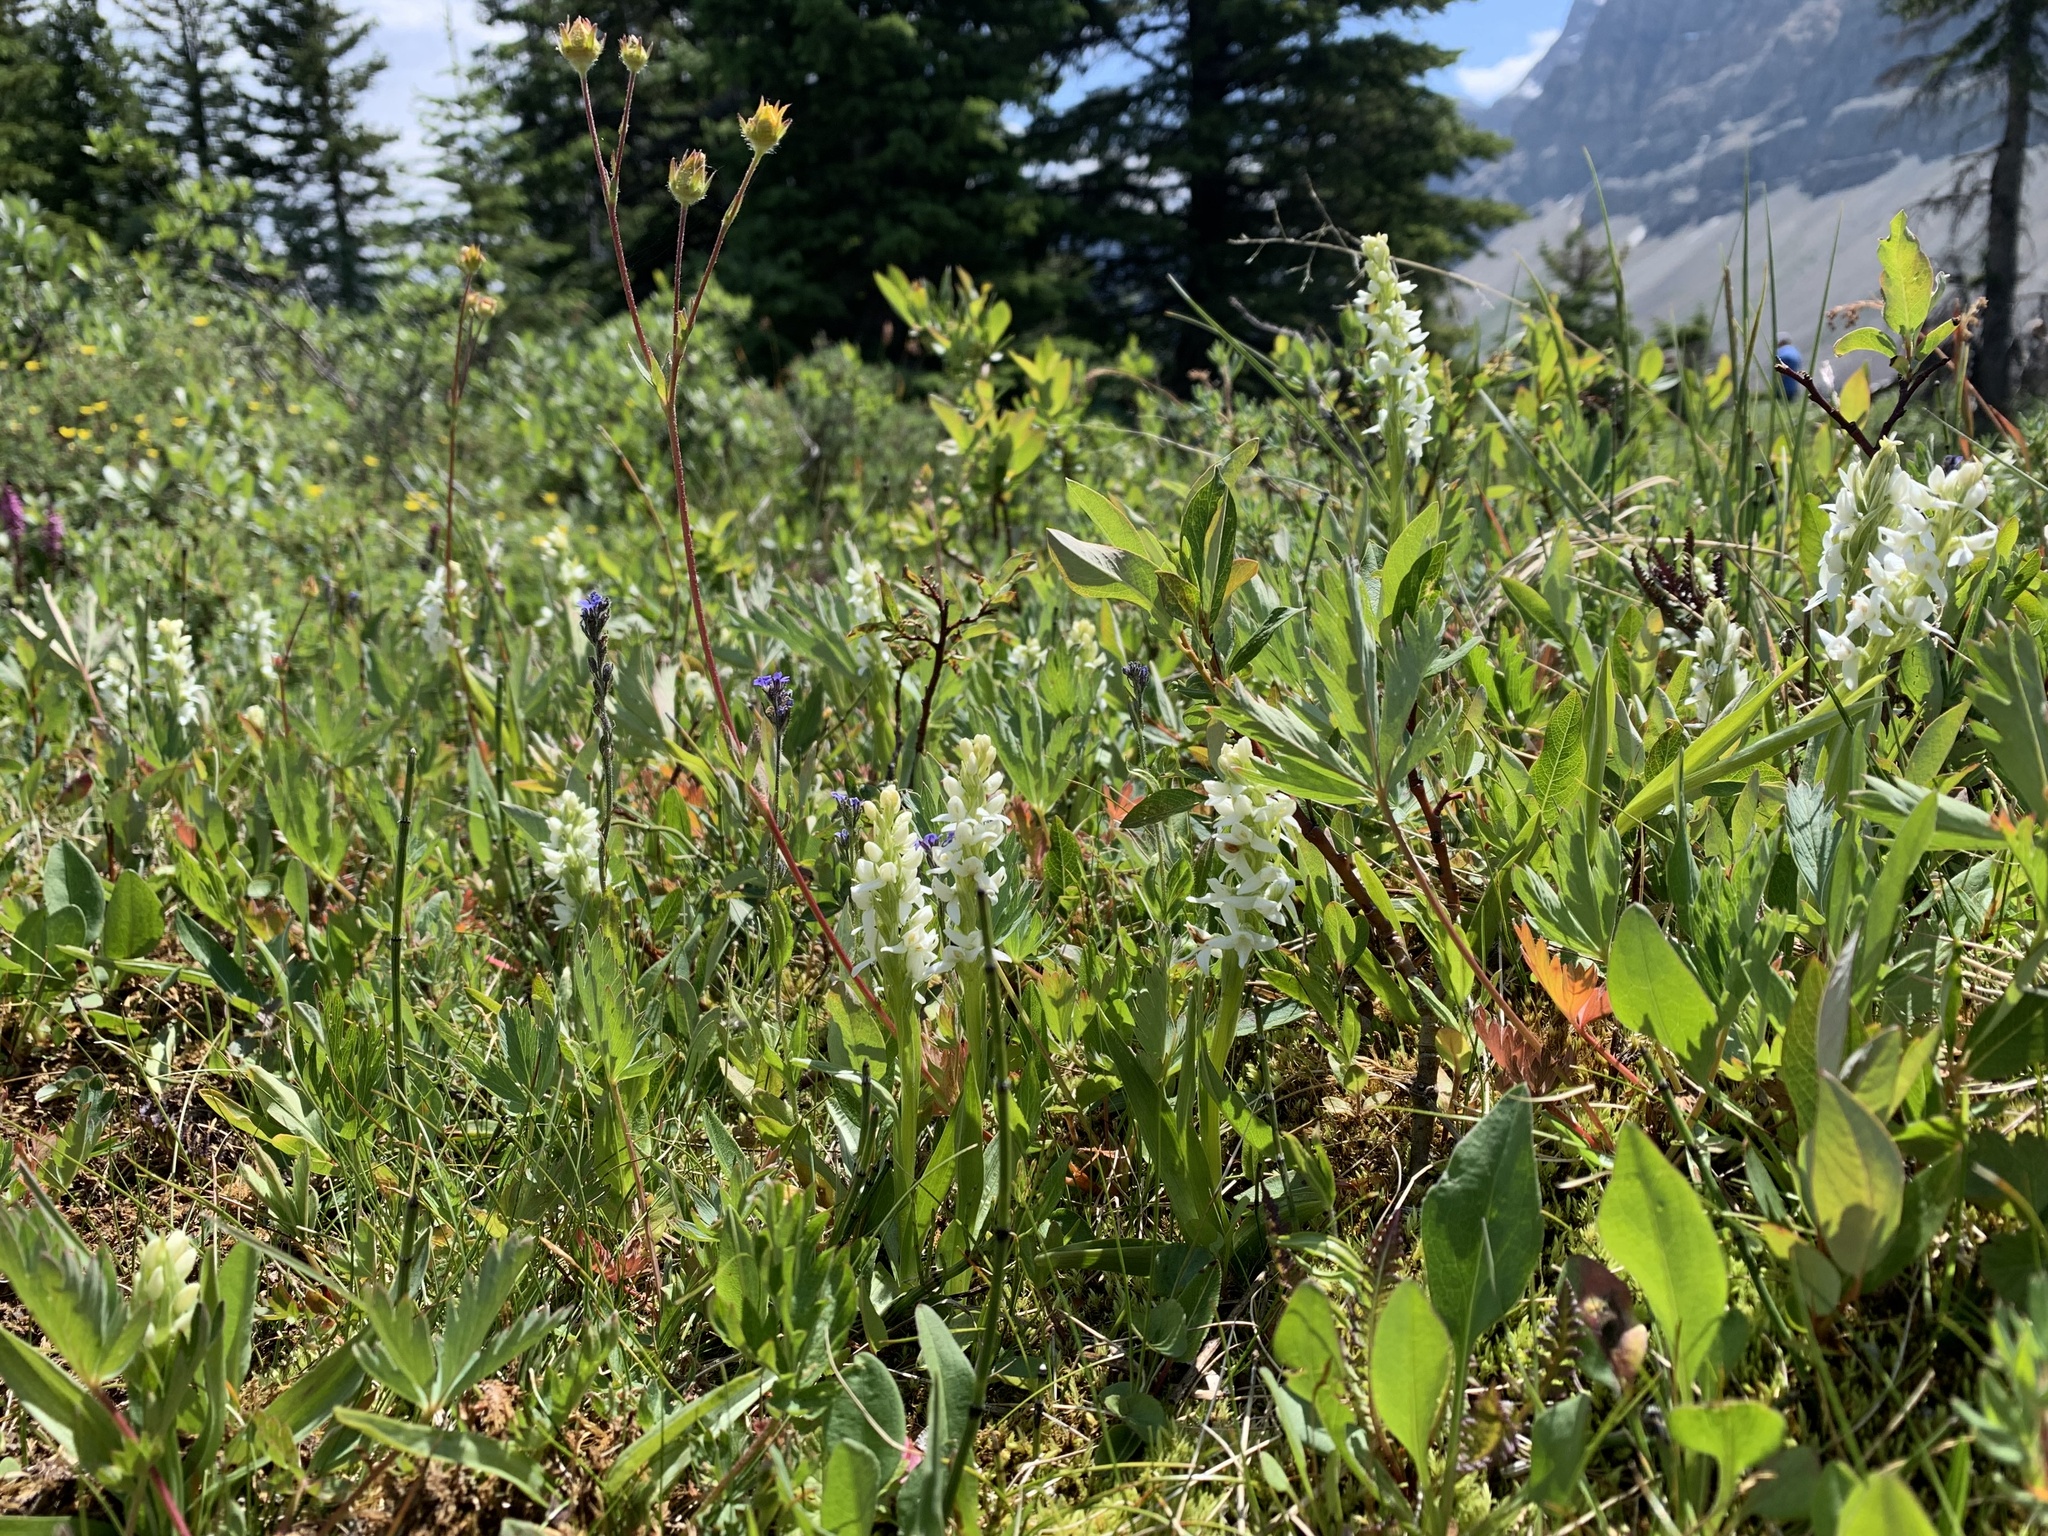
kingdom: Plantae
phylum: Tracheophyta
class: Liliopsida
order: Asparagales
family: Orchidaceae
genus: Platanthera
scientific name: Platanthera dilatata
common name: Bog candles
